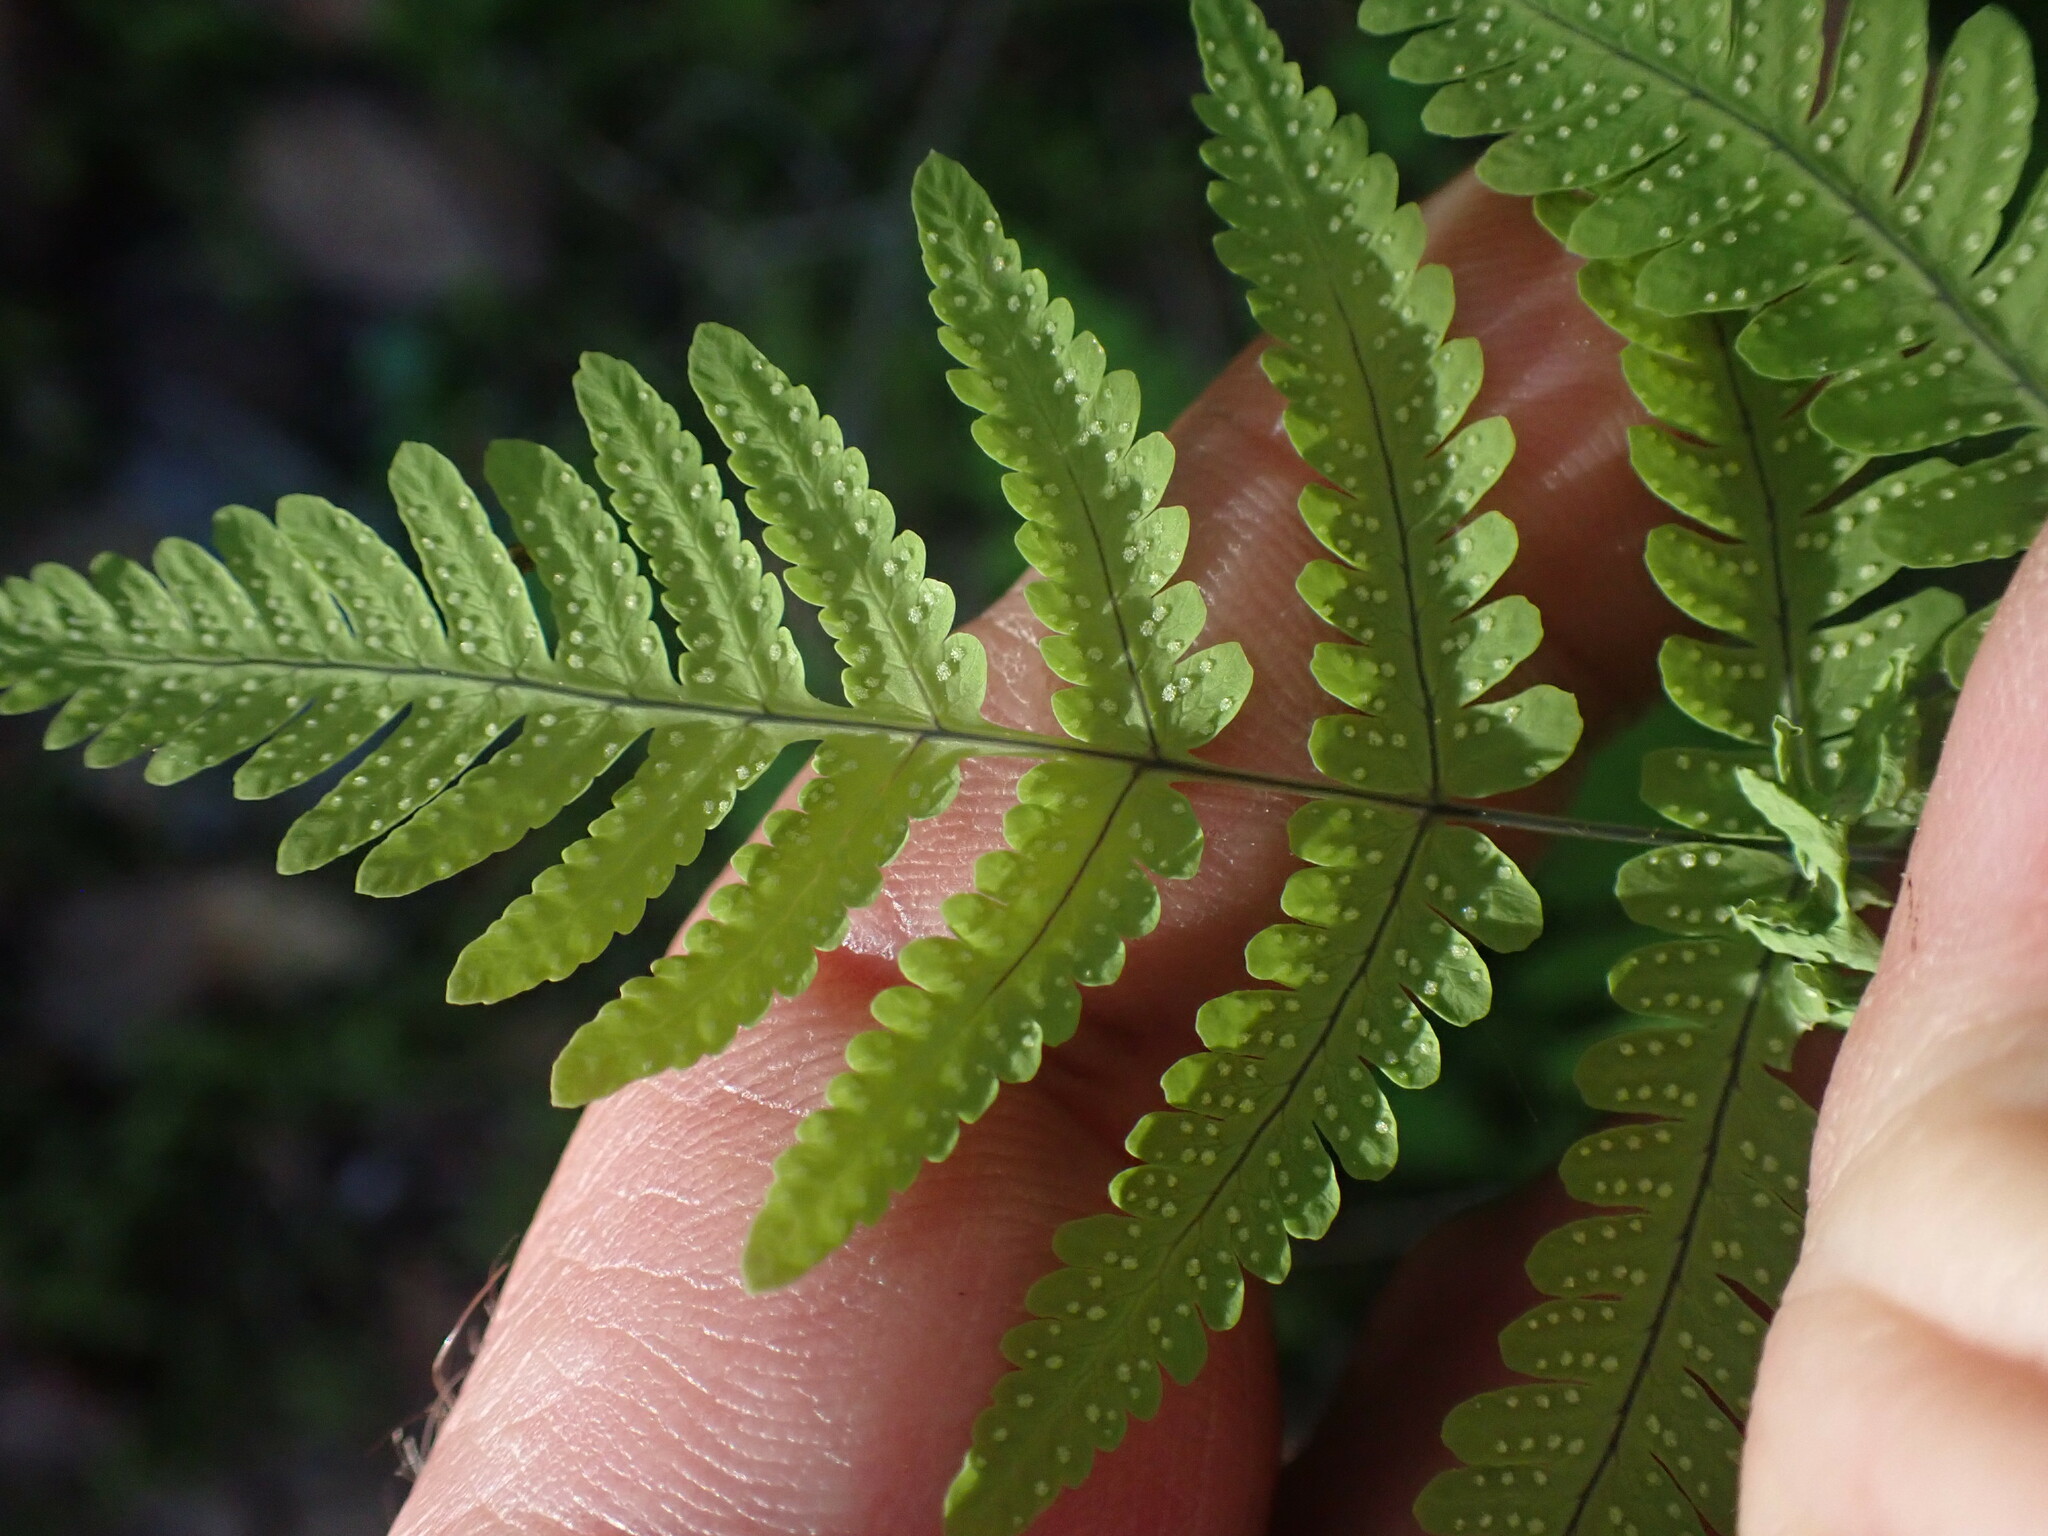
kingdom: Plantae
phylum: Tracheophyta
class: Polypodiopsida
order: Polypodiales
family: Cystopteridaceae
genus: Gymnocarpium
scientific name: Gymnocarpium disjunctum
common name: Western oak fern
